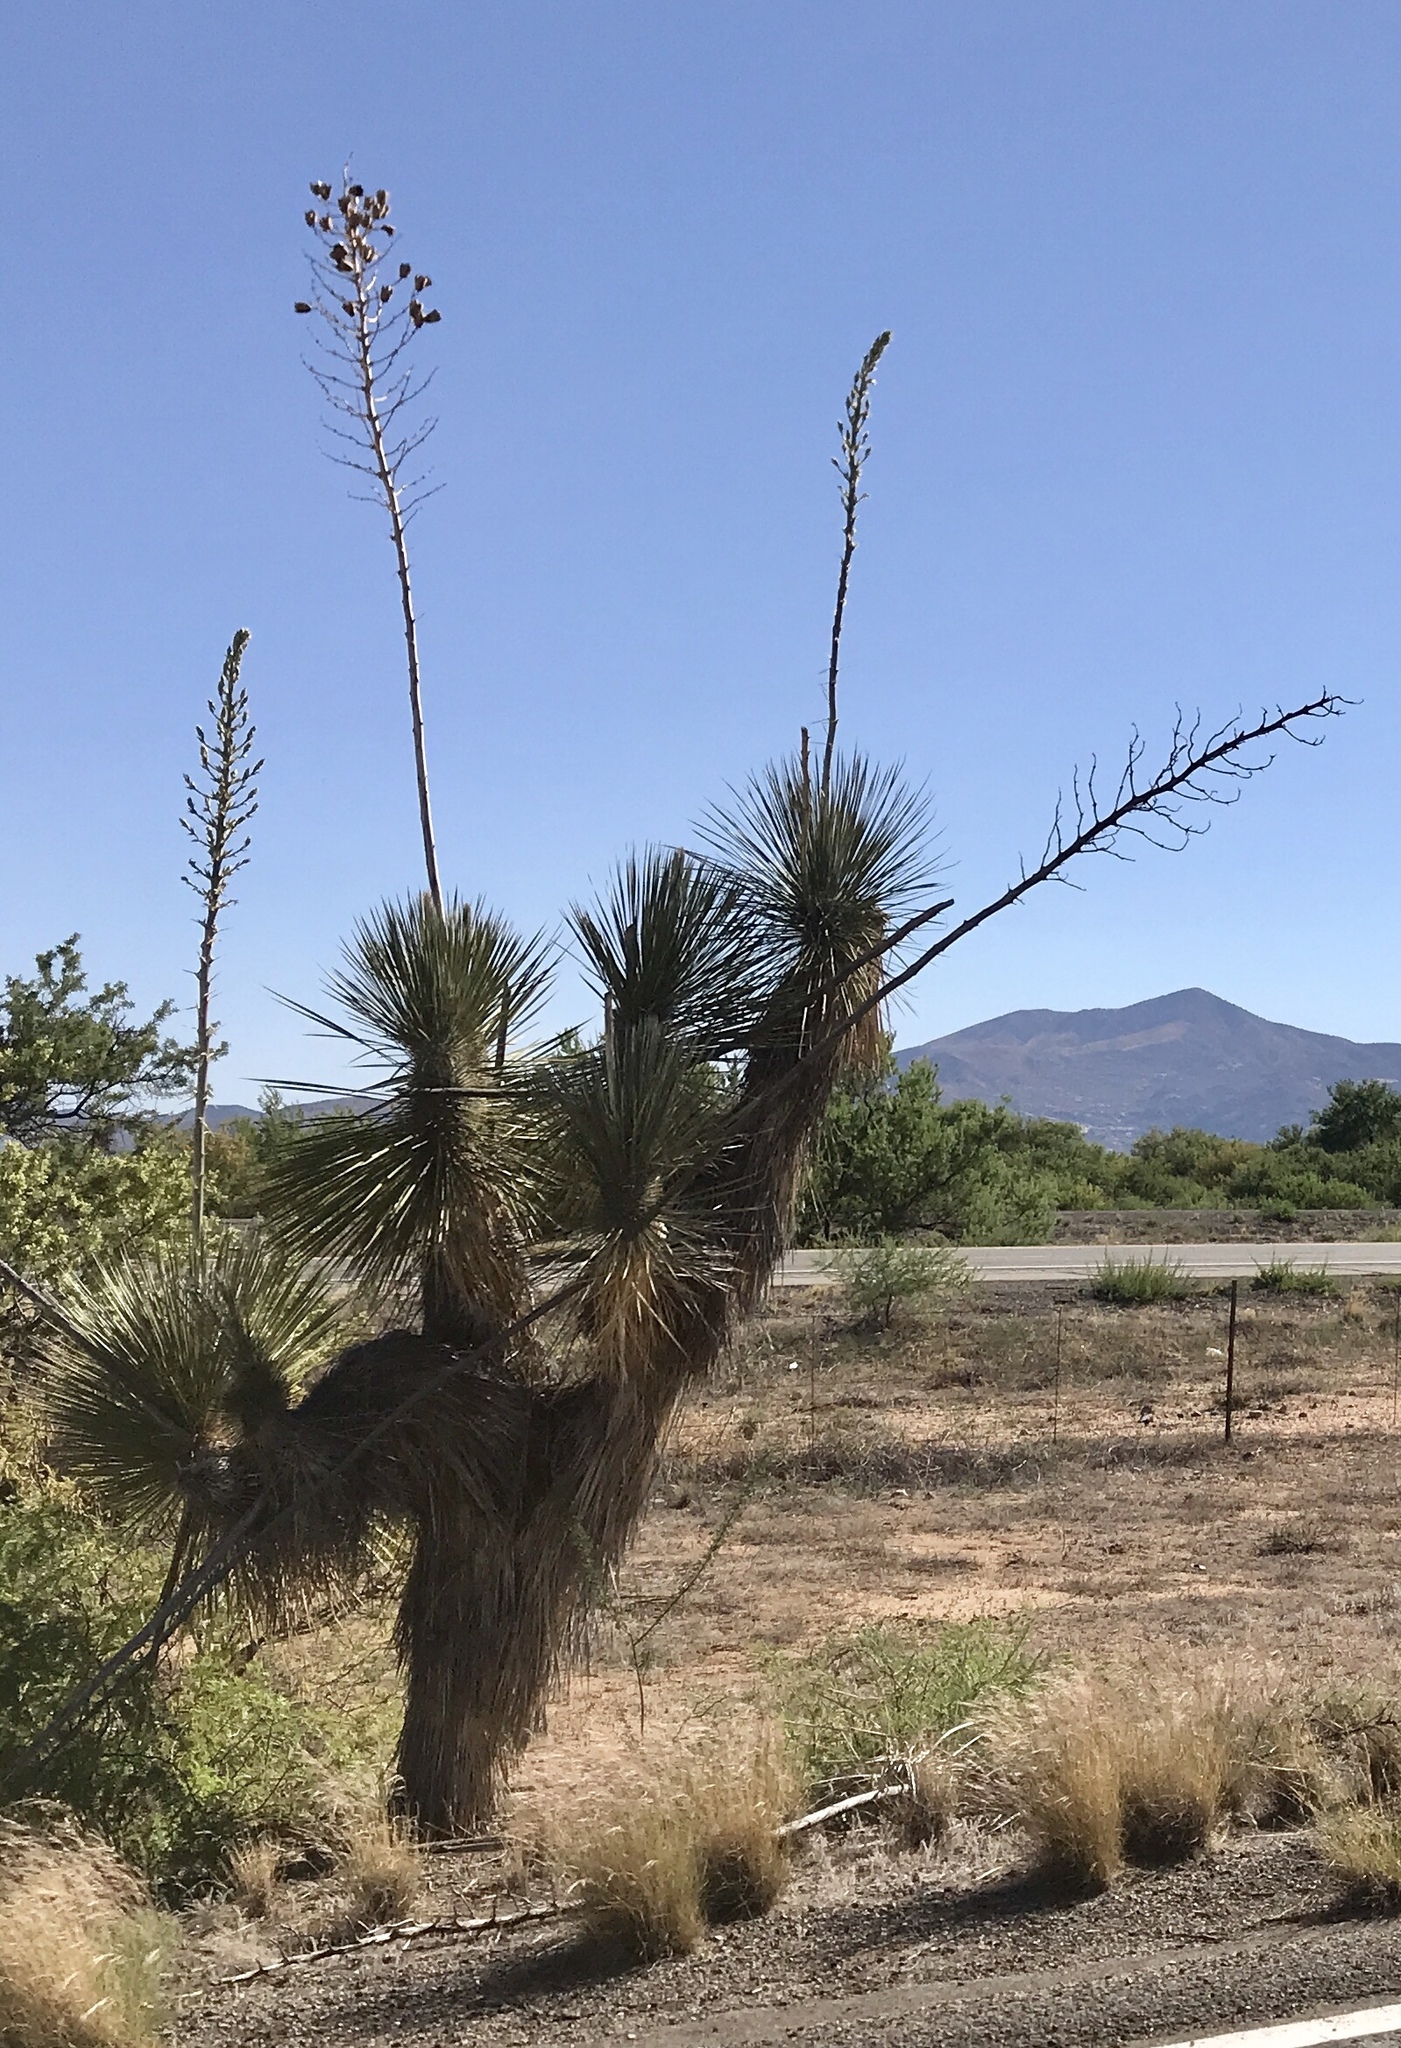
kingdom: Plantae
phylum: Tracheophyta
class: Liliopsida
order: Asparagales
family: Asparagaceae
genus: Yucca
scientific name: Yucca elata
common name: Palmella
